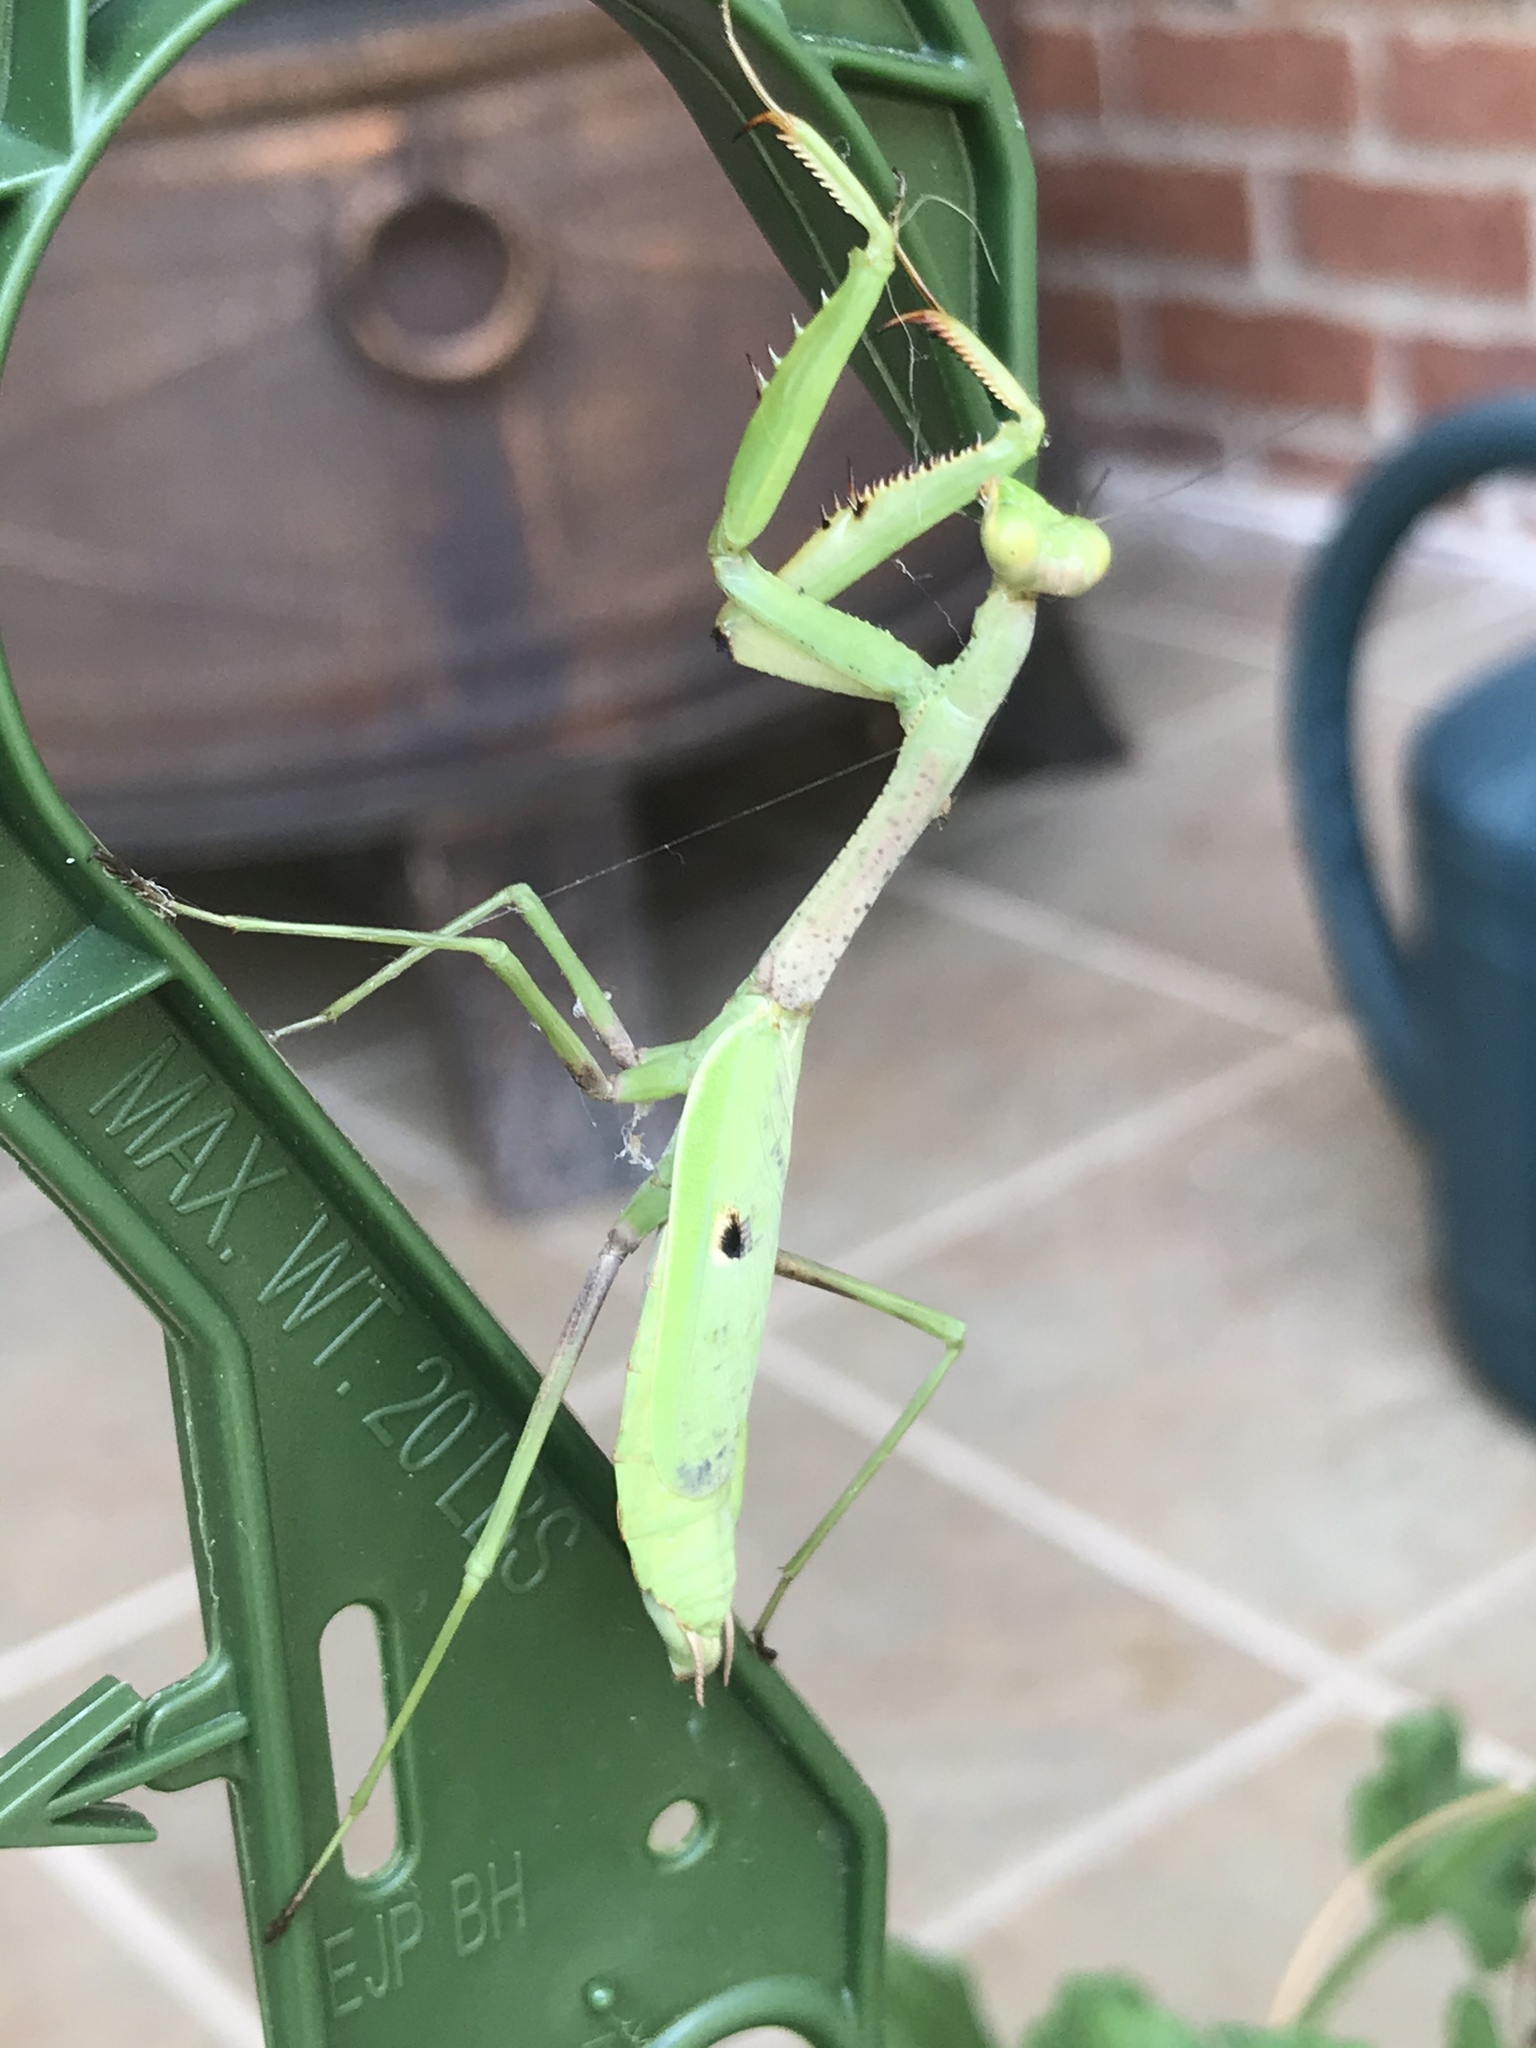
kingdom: Animalia
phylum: Arthropoda
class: Insecta
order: Mantodea
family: Mantidae
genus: Stagmomantis
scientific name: Stagmomantis carolina
